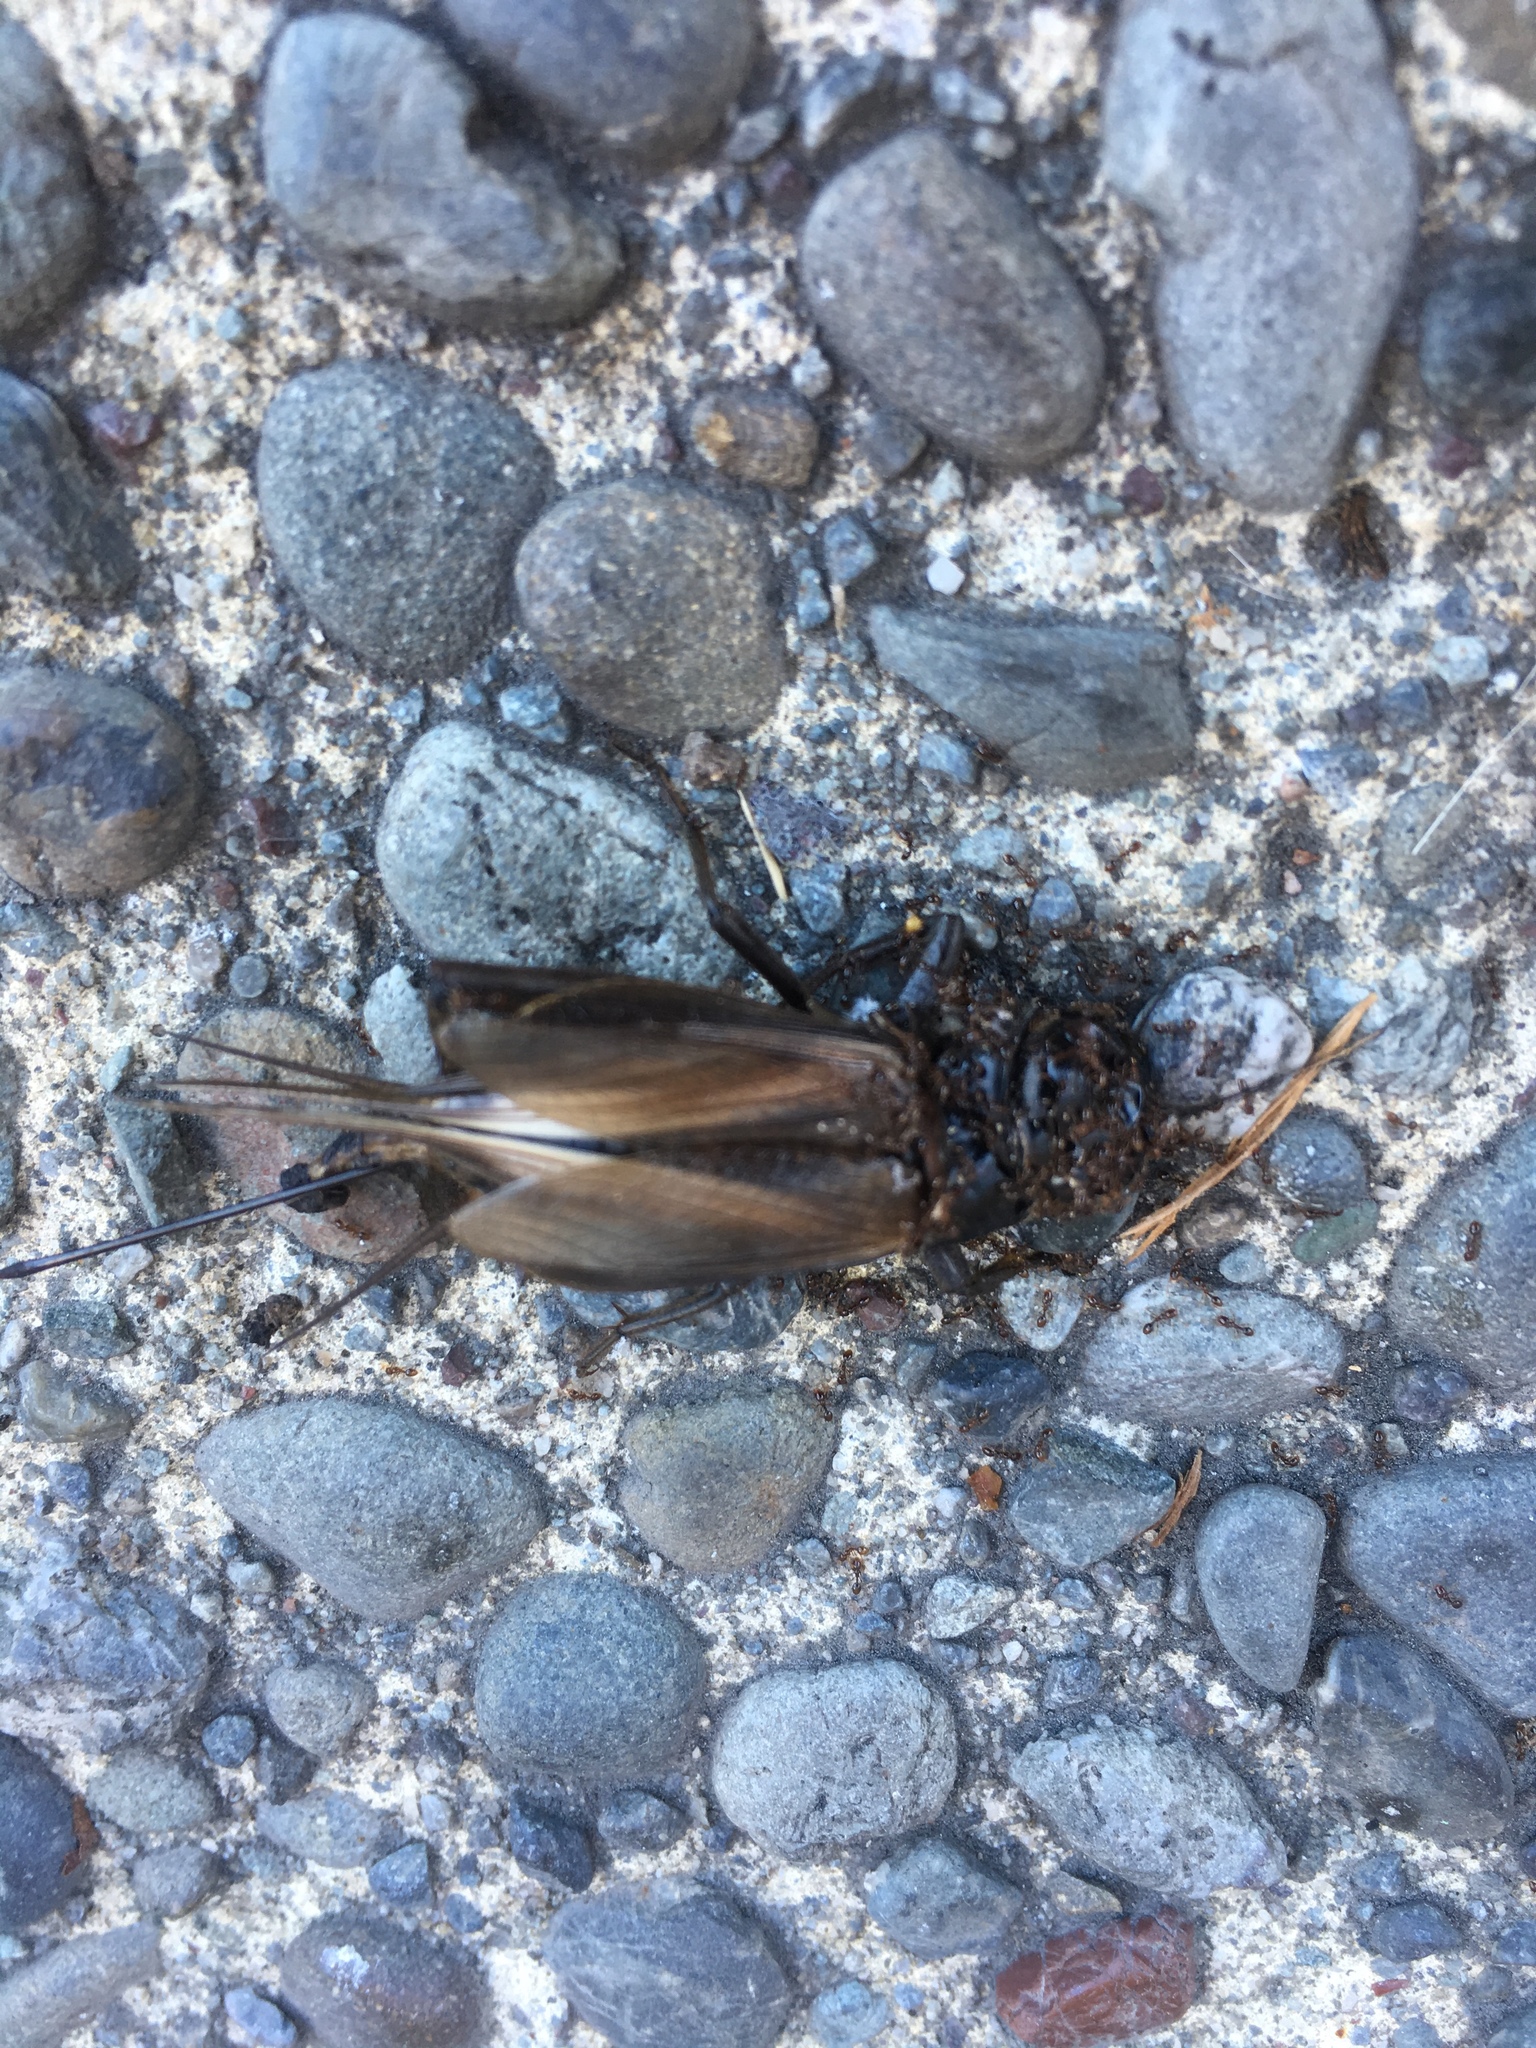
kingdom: Animalia
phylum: Arthropoda
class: Insecta
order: Orthoptera
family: Gryllidae
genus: Teleogryllus
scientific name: Teleogryllus commodus
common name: Black field cricket
